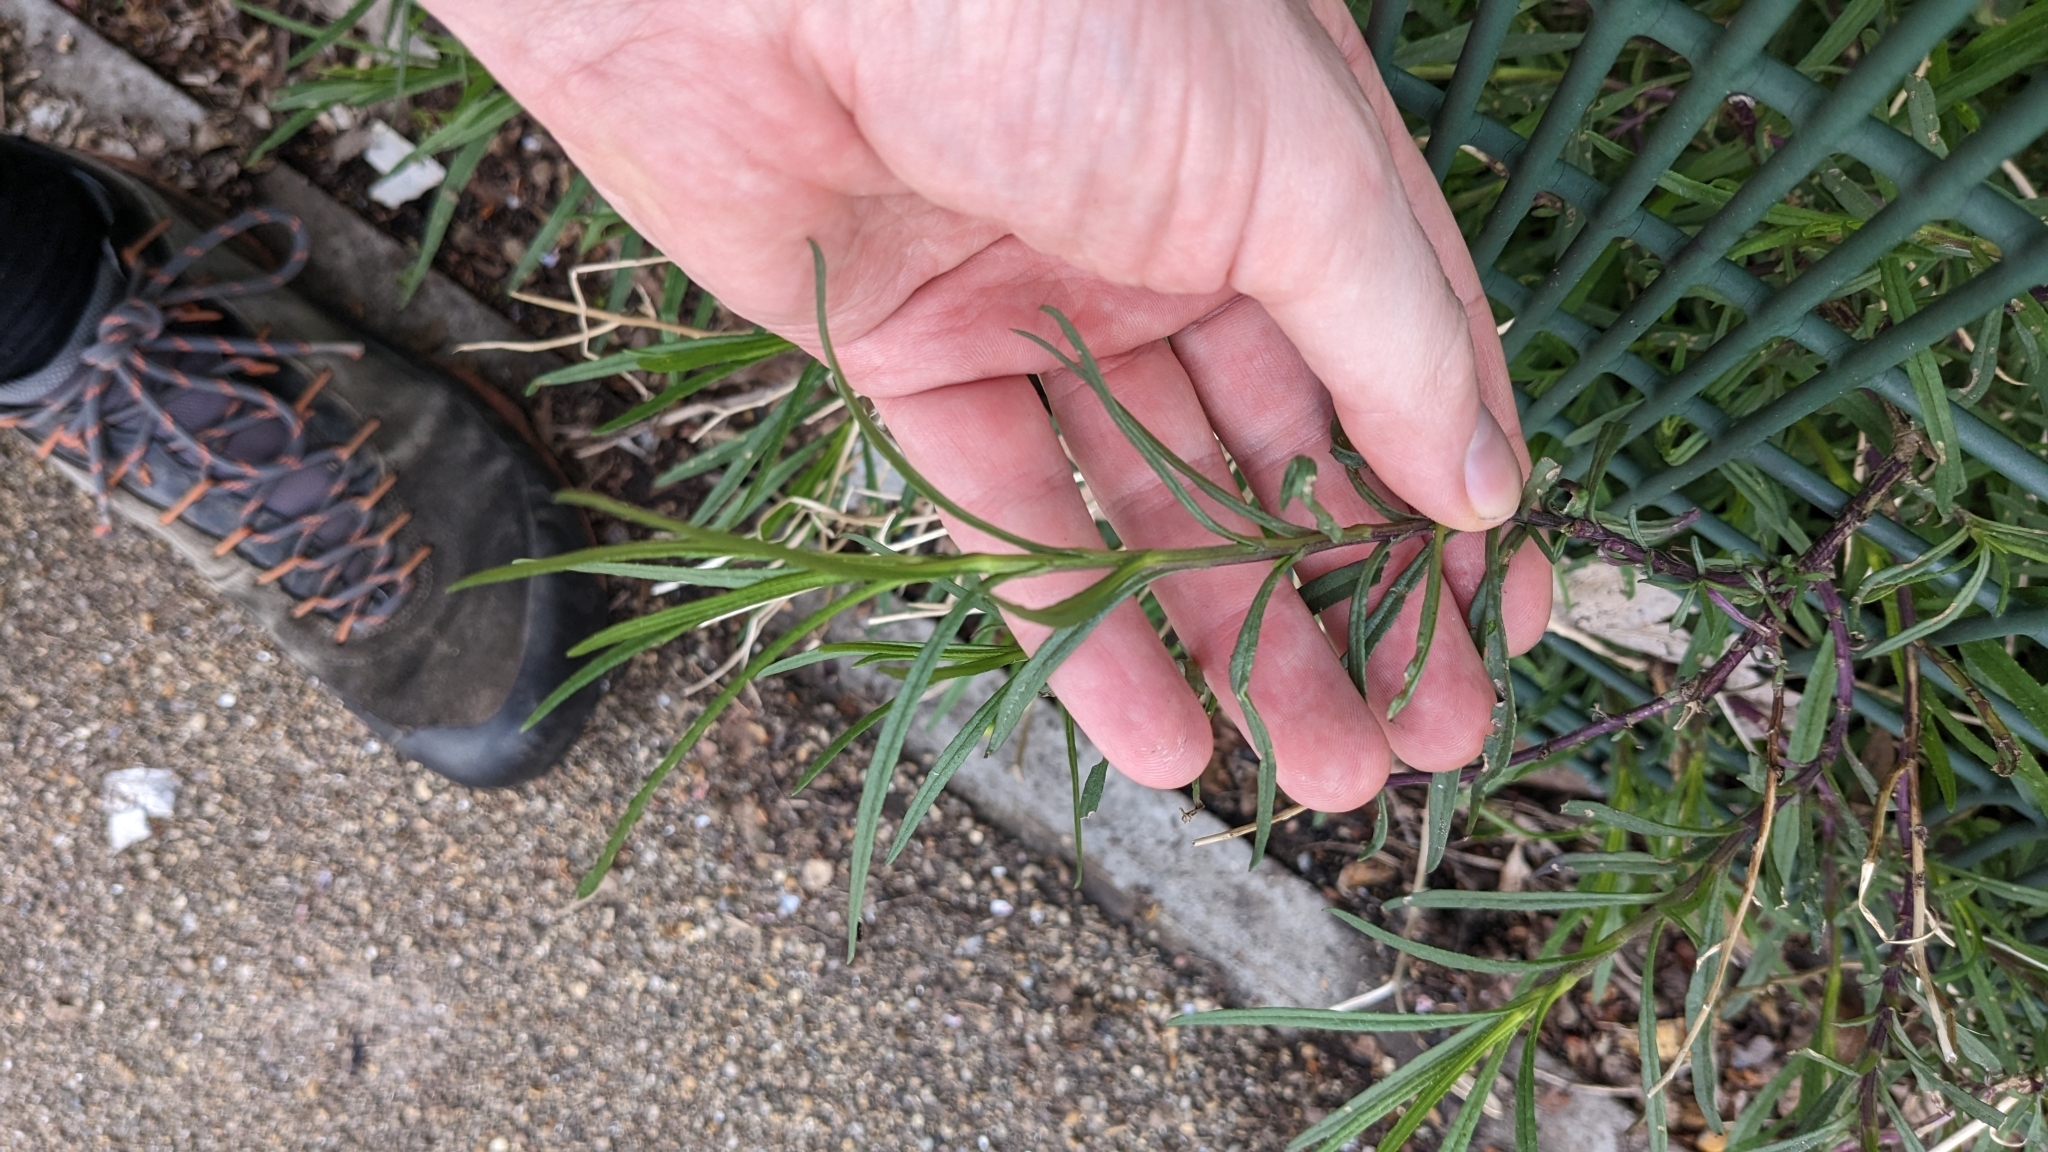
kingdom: Plantae
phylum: Tracheophyta
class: Magnoliopsida
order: Asterales
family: Asteraceae
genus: Senecio
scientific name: Senecio inaequidens
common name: Narrow-leaved ragwort
